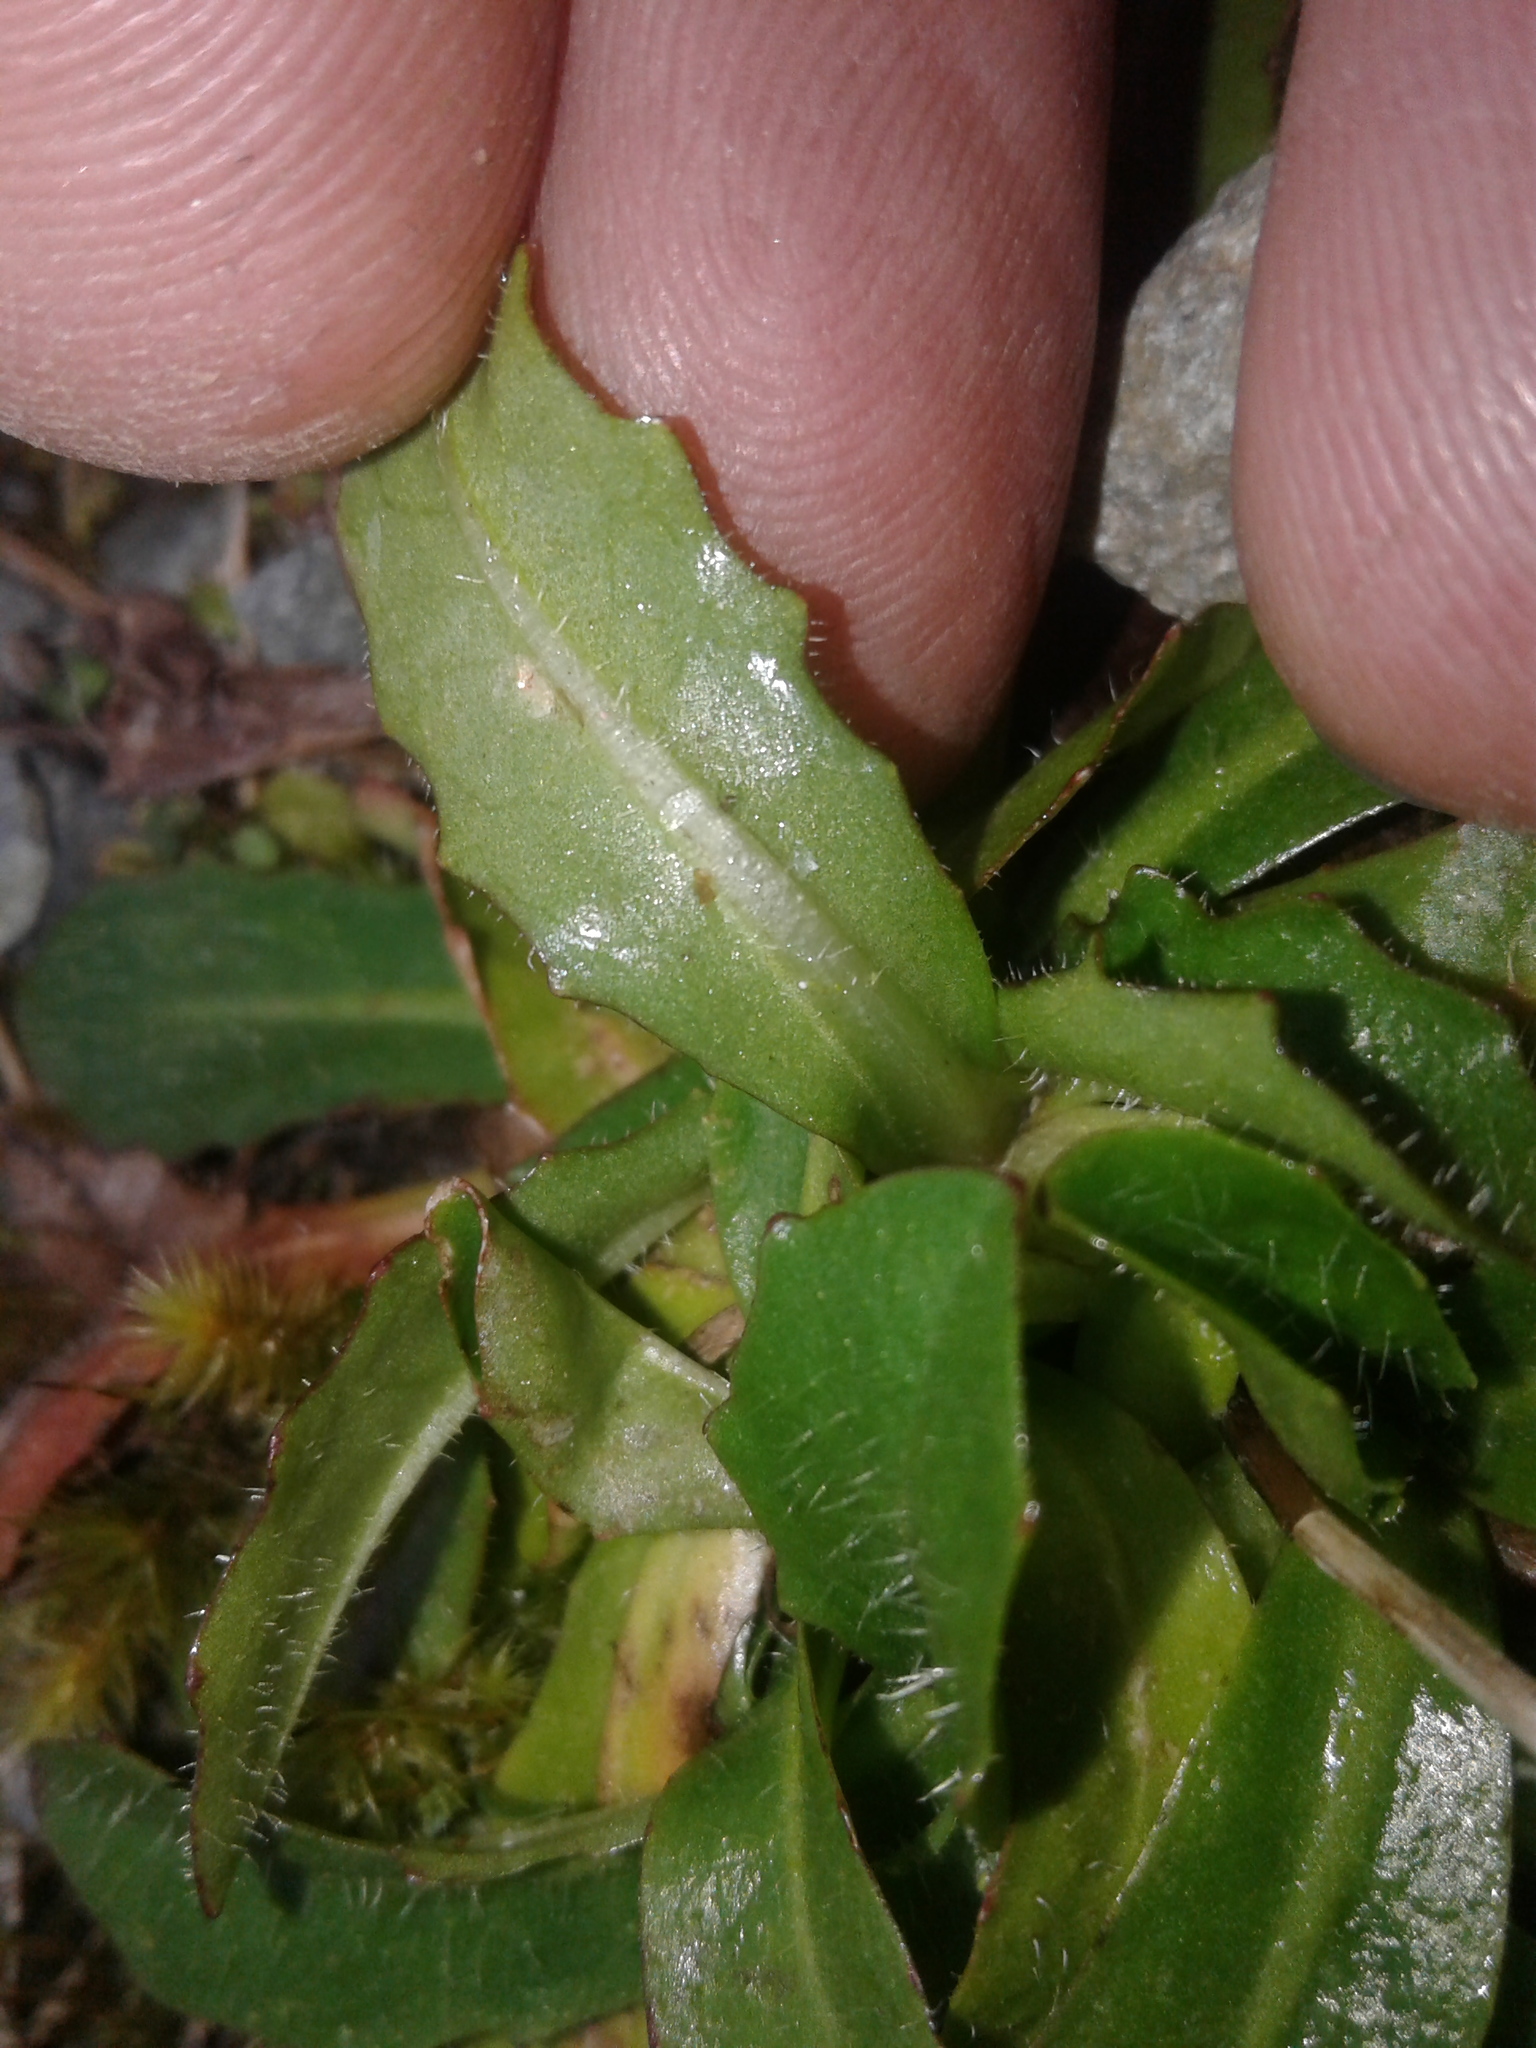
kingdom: Plantae
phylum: Tracheophyta
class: Magnoliopsida
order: Asterales
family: Asteraceae
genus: Hypochaeris
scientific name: Hypochaeris radicata
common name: Flatweed
